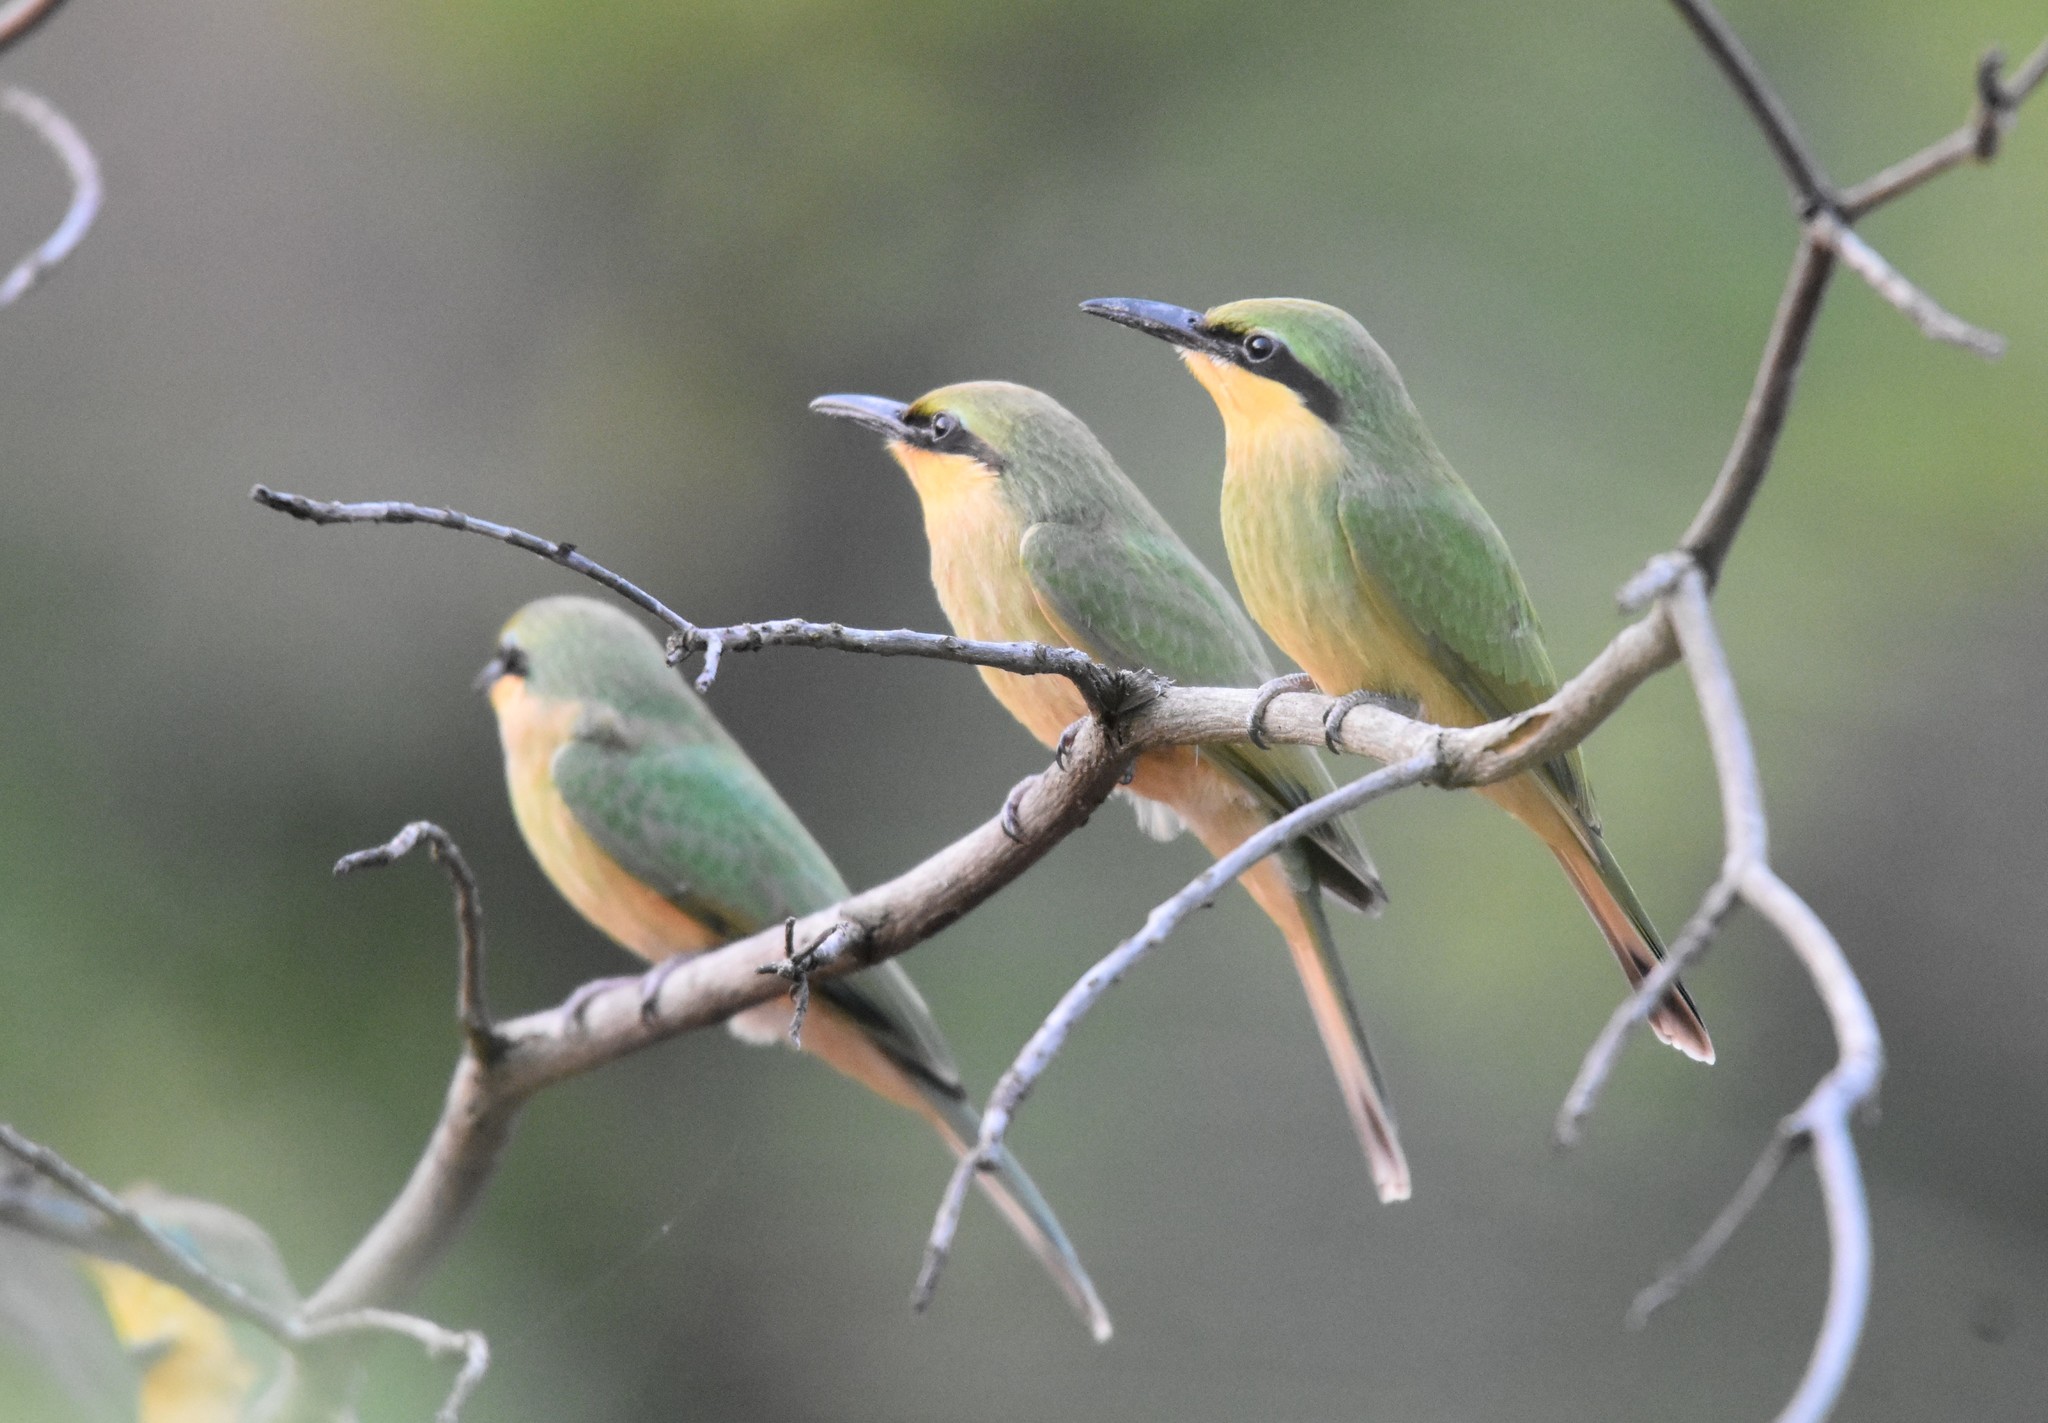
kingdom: Animalia
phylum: Chordata
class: Aves
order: Coraciiformes
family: Meropidae
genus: Merops
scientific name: Merops pusillus
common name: Little bee-eater
